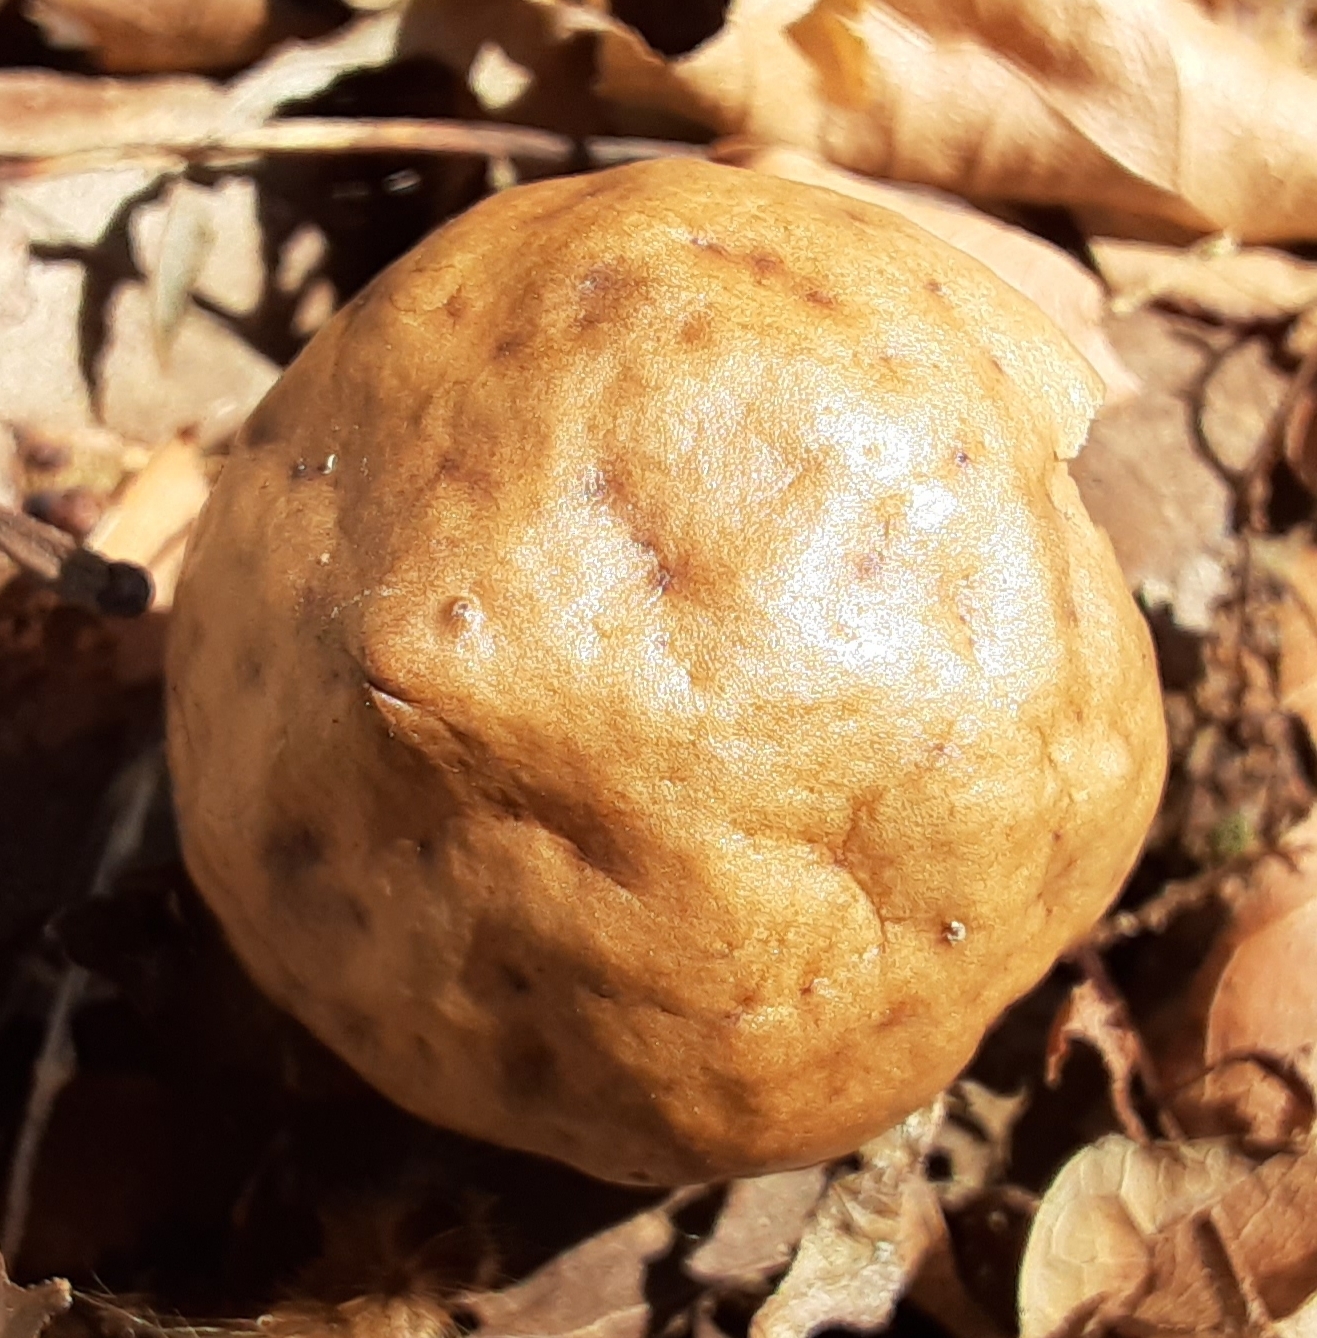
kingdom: Animalia
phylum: Arthropoda
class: Insecta
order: Hymenoptera
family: Cynipidae
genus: Amphibolips
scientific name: Amphibolips
